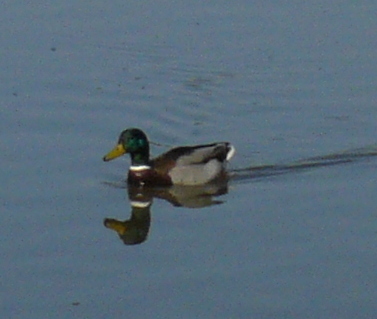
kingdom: Animalia
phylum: Chordata
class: Aves
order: Anseriformes
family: Anatidae
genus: Anas
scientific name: Anas platyrhynchos
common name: Mallard
